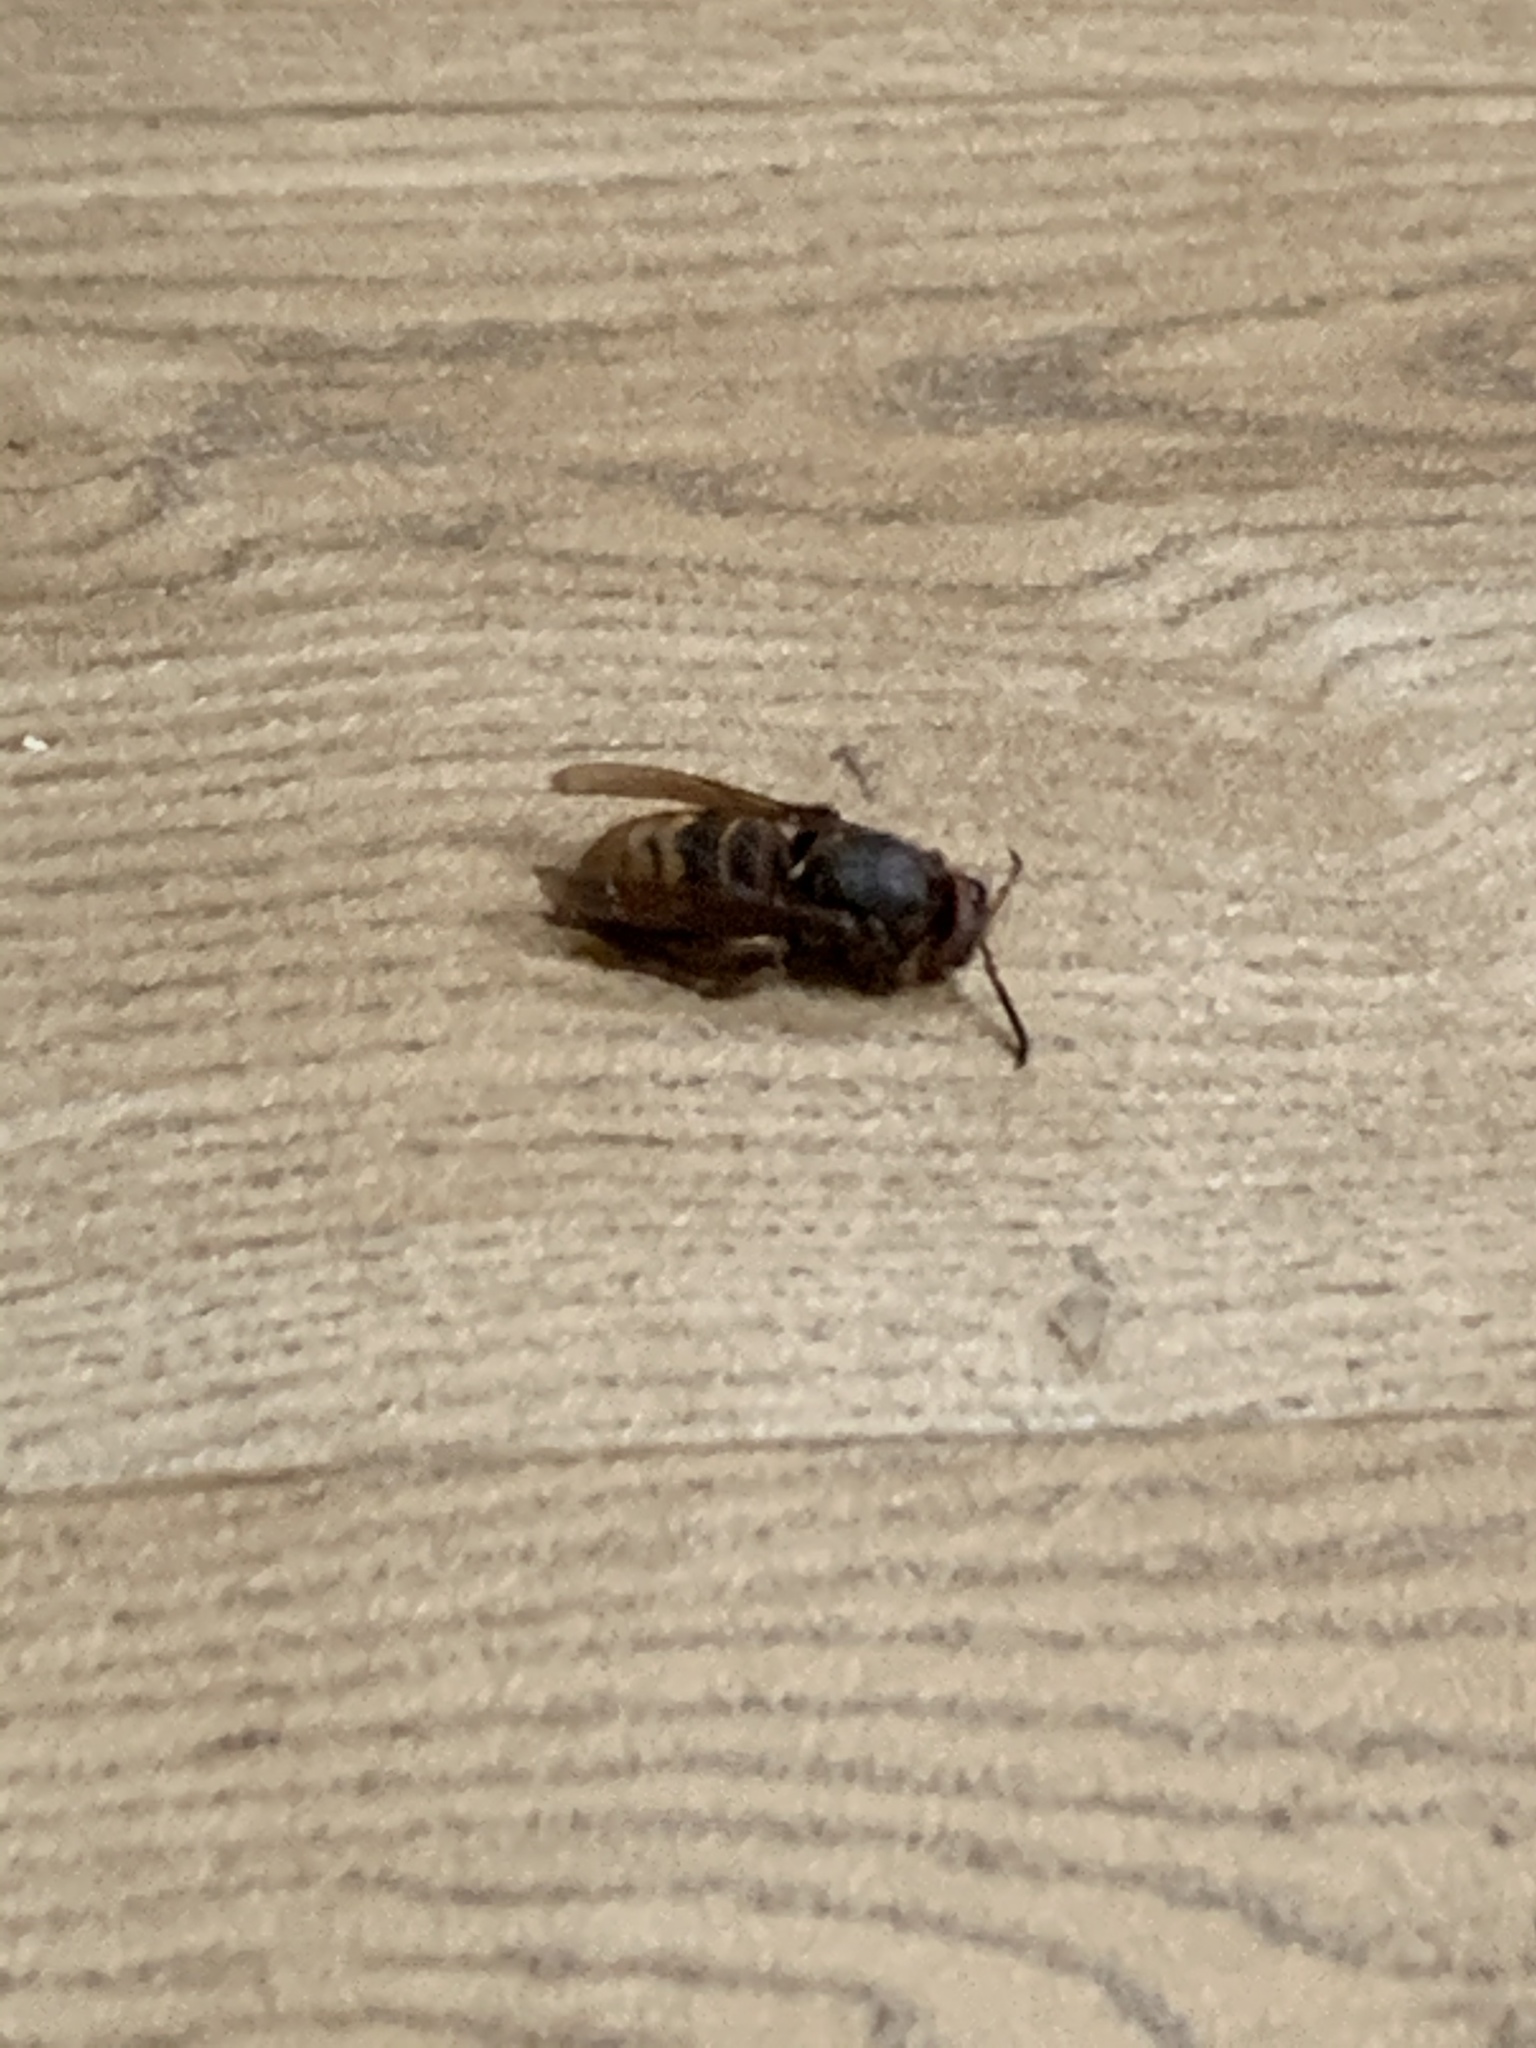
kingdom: Animalia
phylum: Arthropoda
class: Insecta
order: Hymenoptera
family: Vespidae
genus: Vespa
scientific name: Vespa crabro
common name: Hornet
